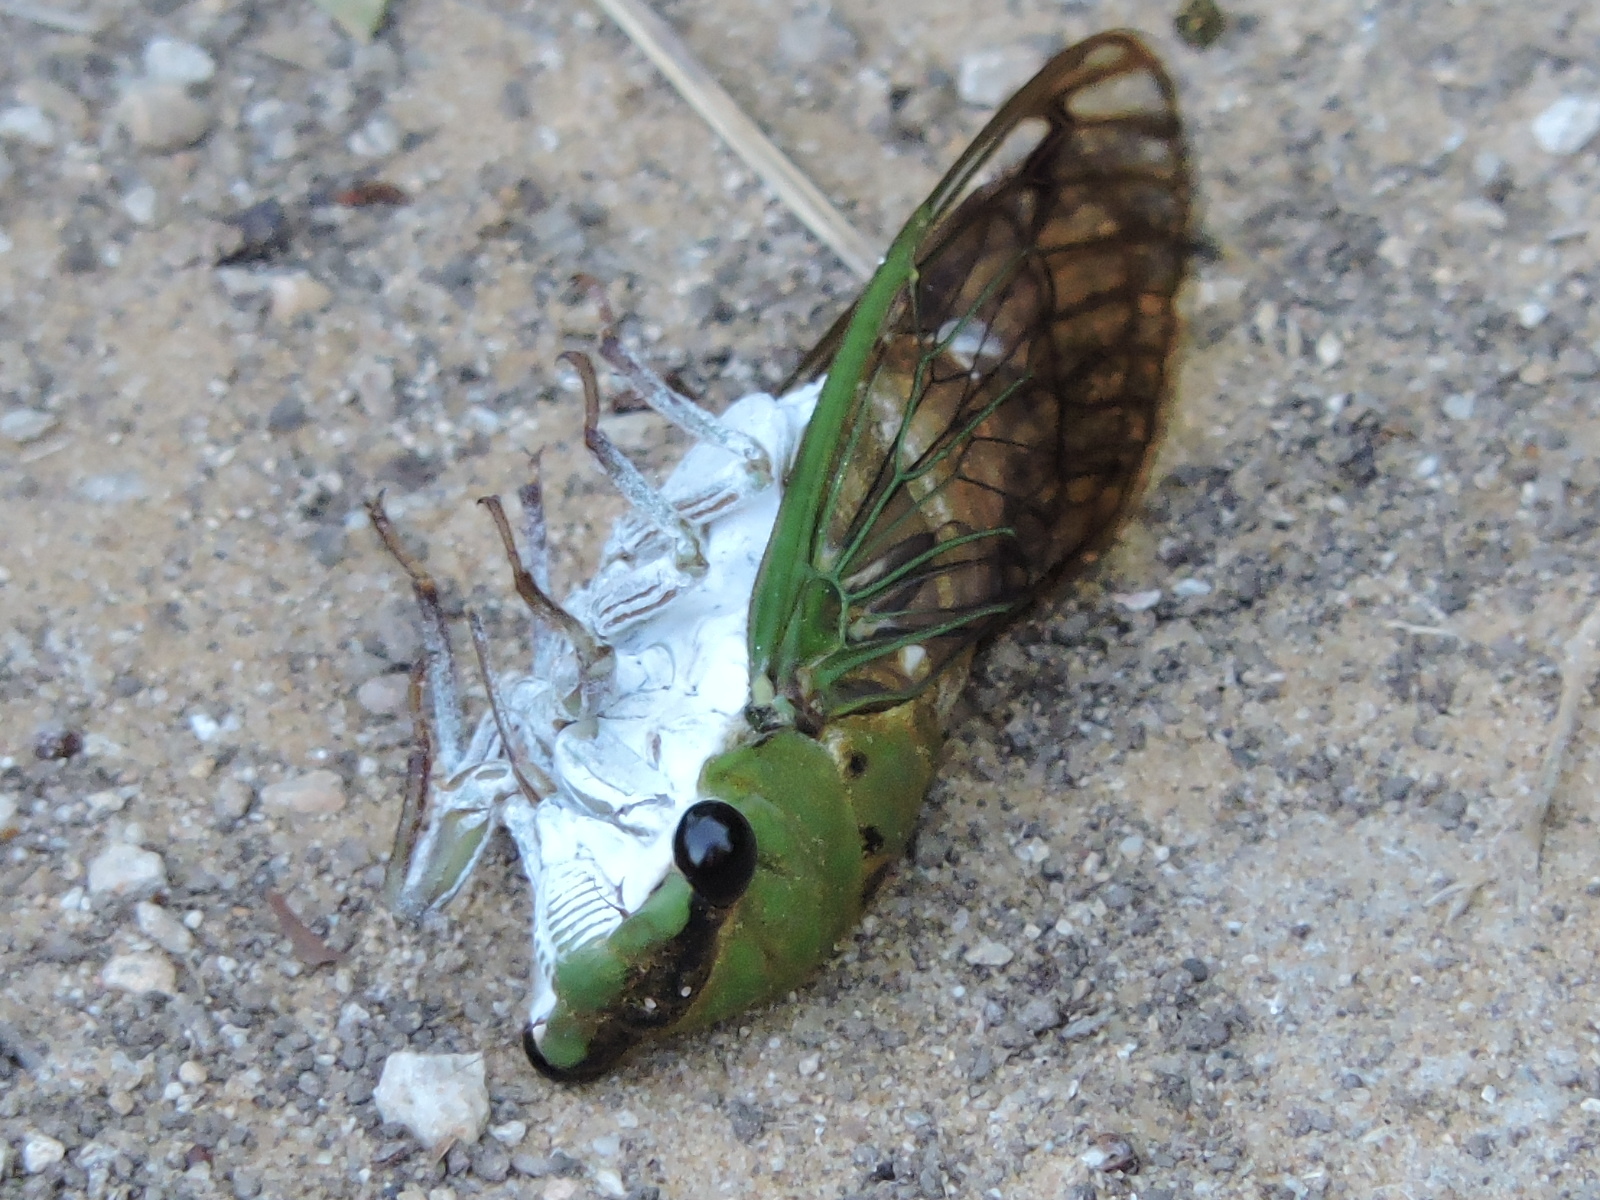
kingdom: Animalia
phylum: Arthropoda
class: Insecta
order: Hemiptera
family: Cicadidae
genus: Neotibicen
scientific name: Neotibicen superbus
